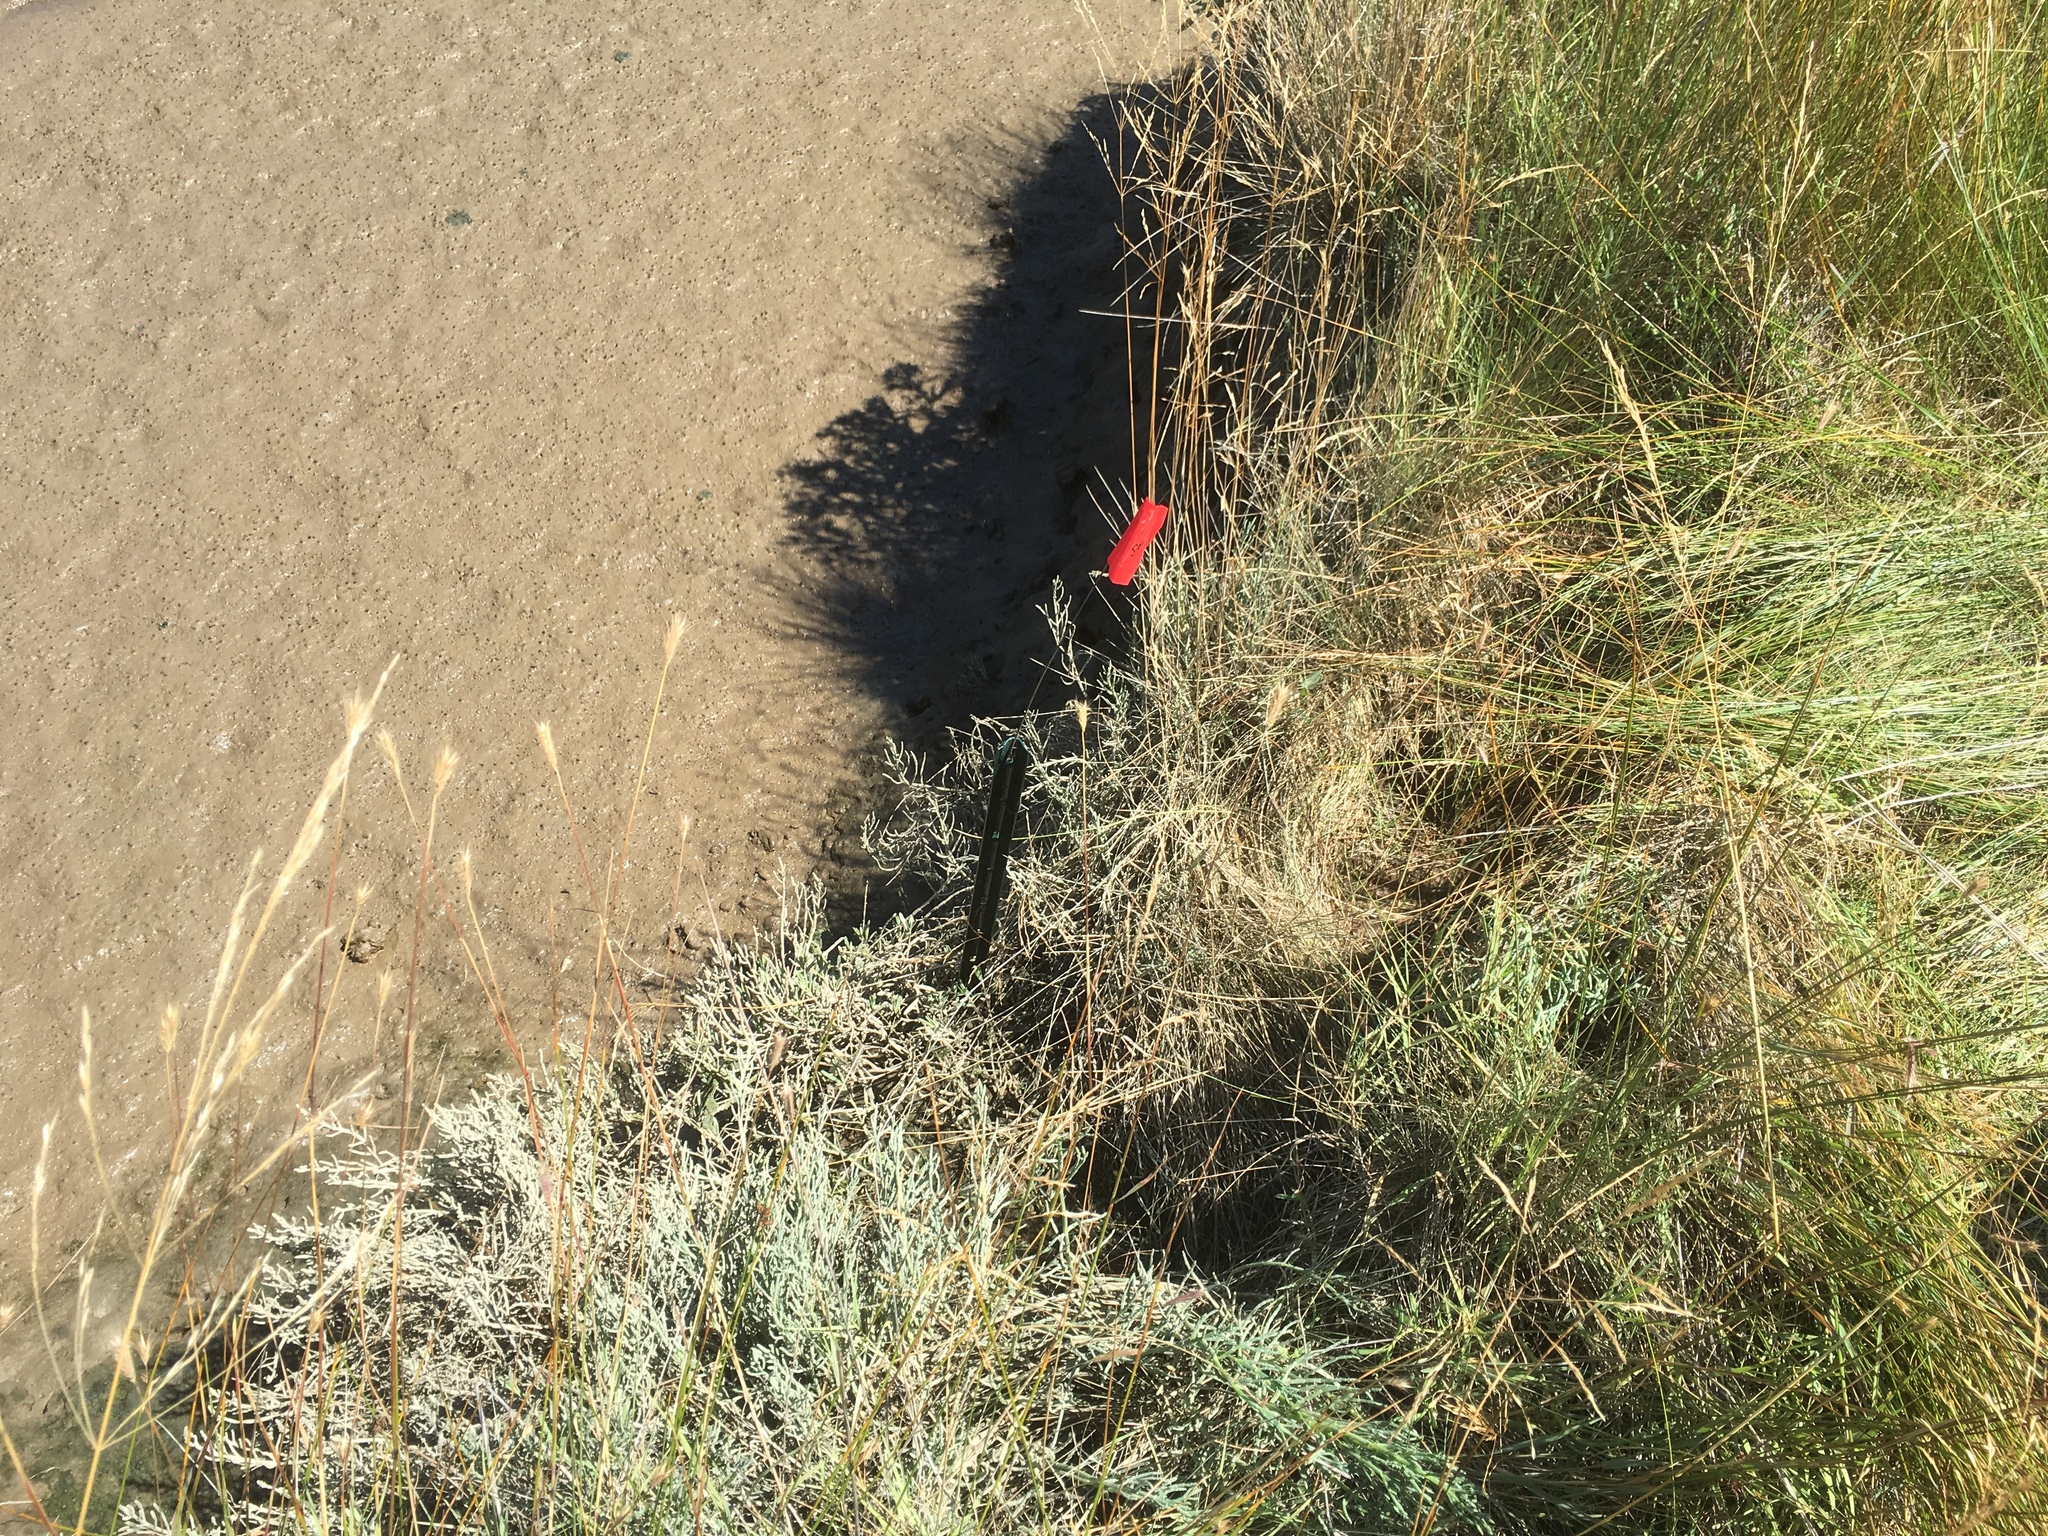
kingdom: Plantae
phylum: Tracheophyta
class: Liliopsida
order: Poales
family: Poaceae
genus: Hordeum
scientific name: Hordeum brachyantherum
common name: Meadow barley
